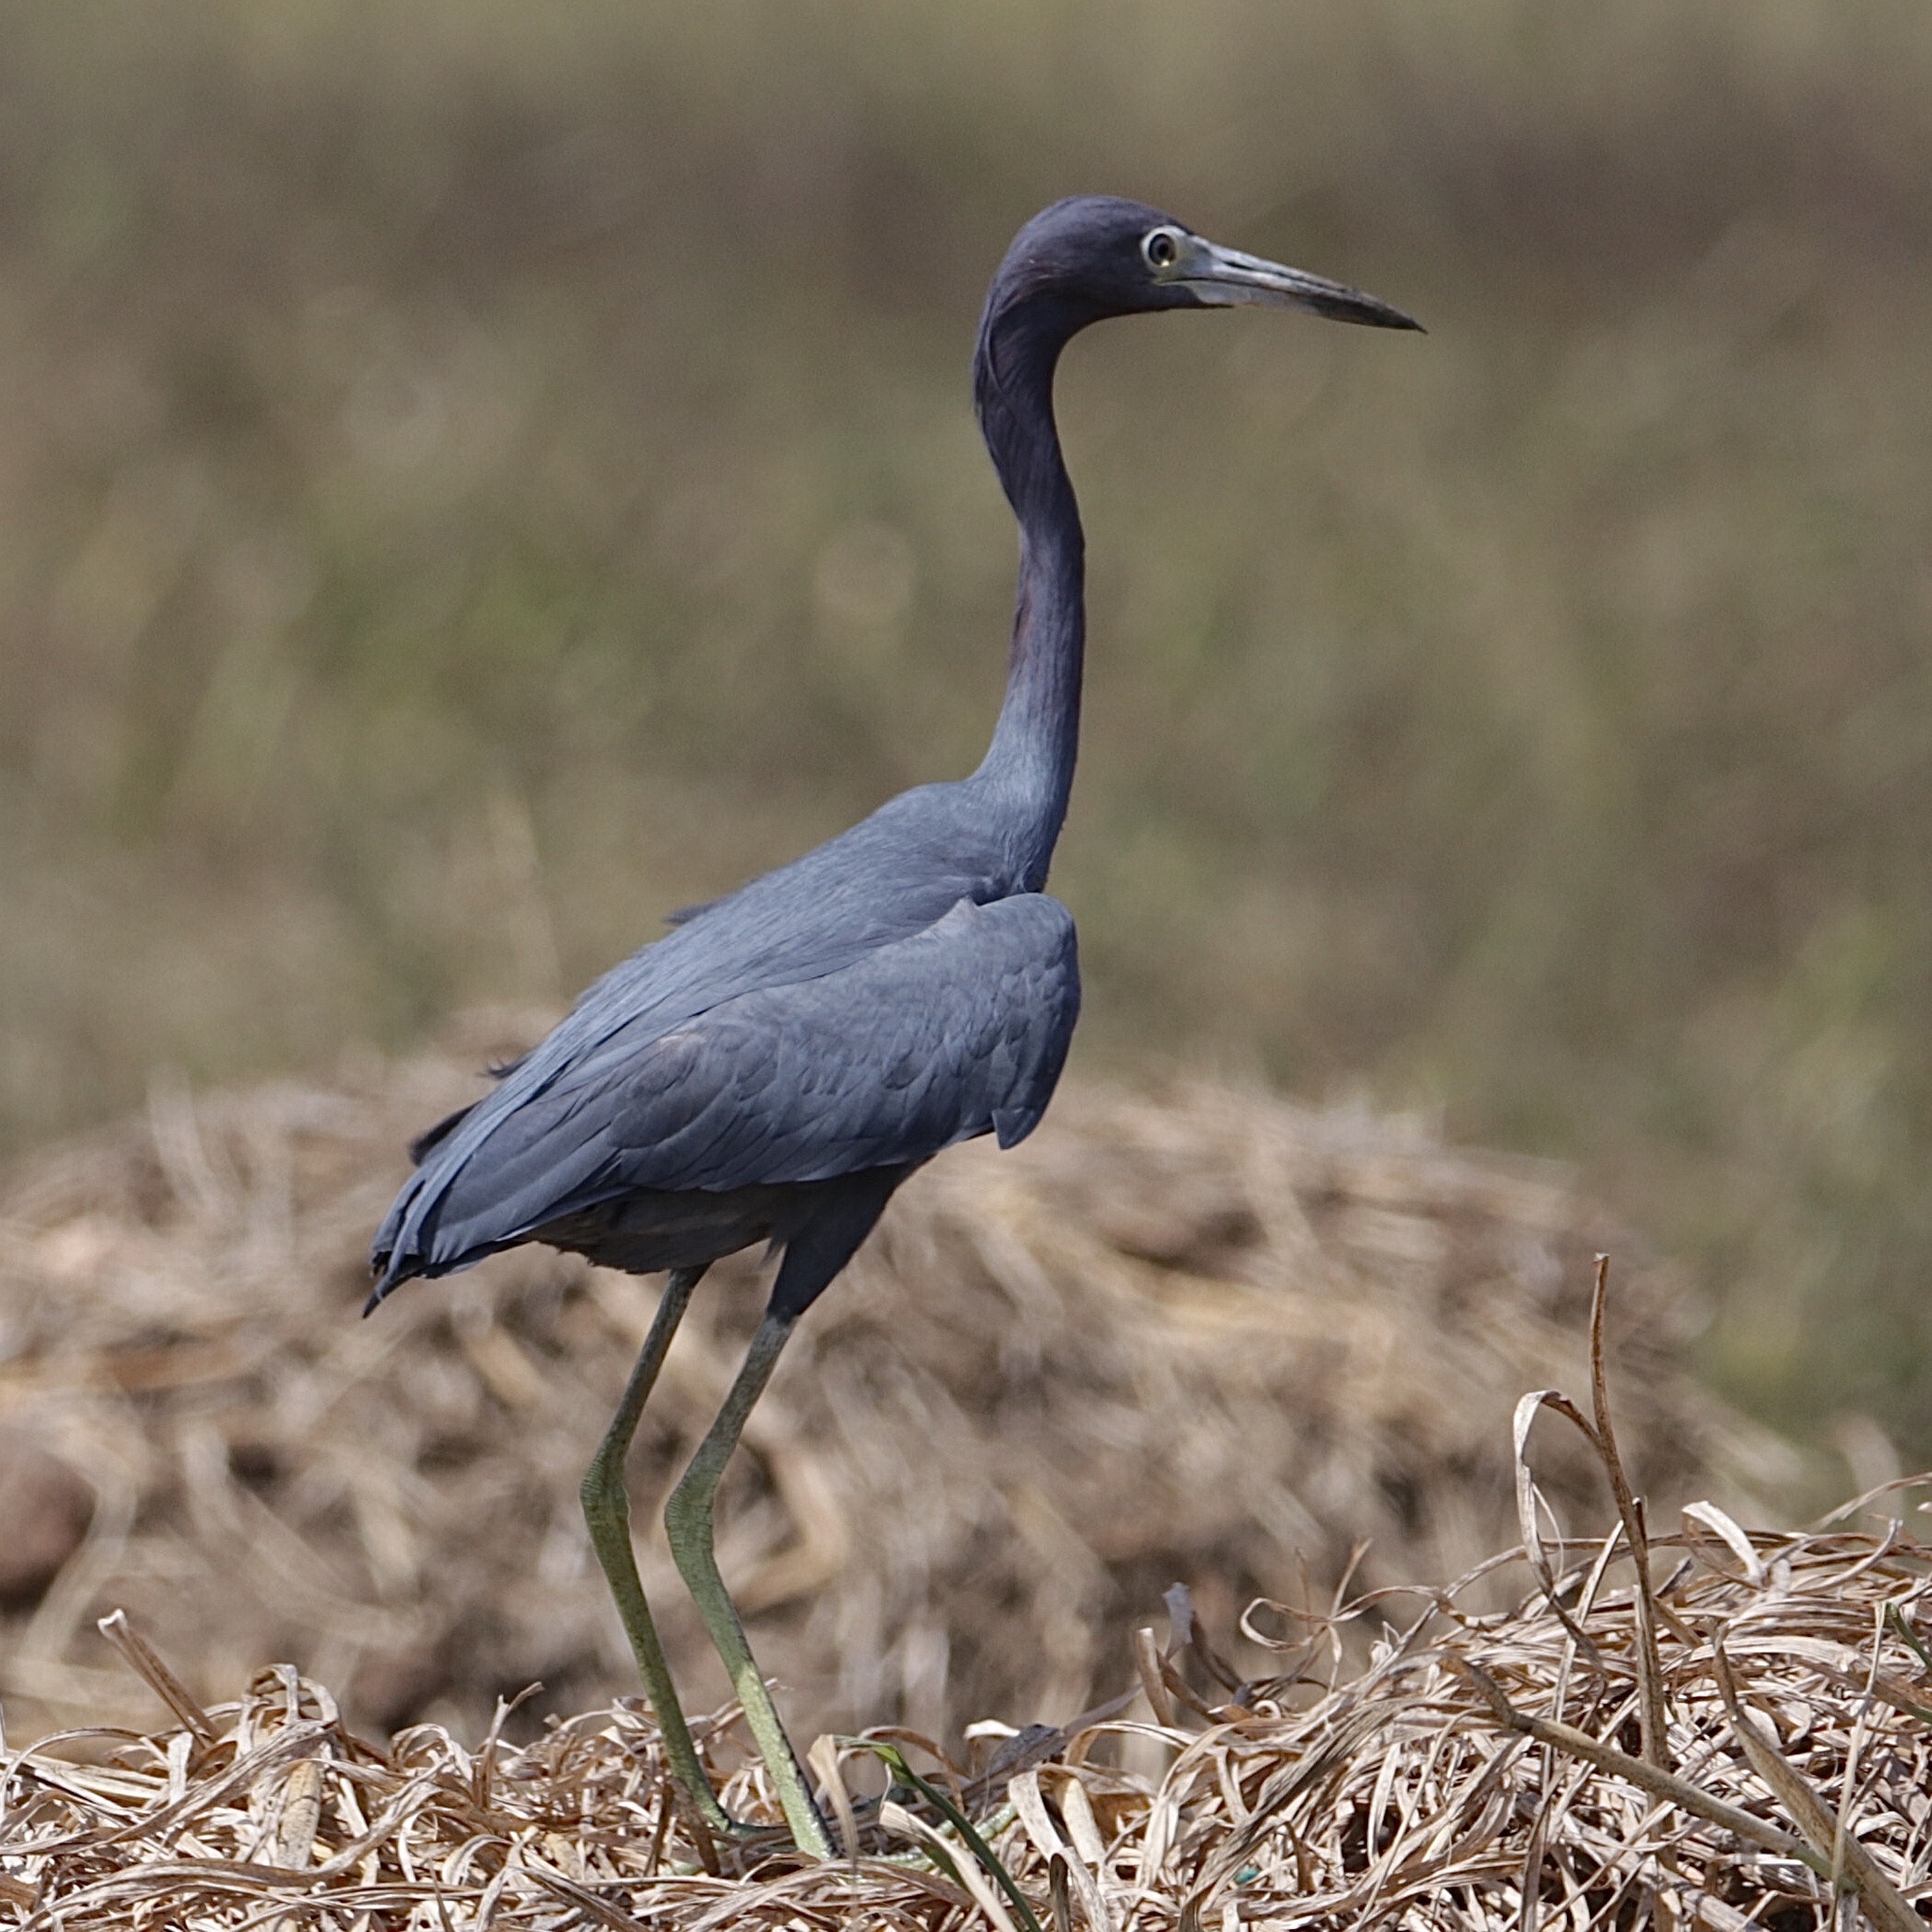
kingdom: Animalia
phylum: Chordata
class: Aves
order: Pelecaniformes
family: Ardeidae
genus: Egretta
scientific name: Egretta caerulea
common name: Little blue heron
